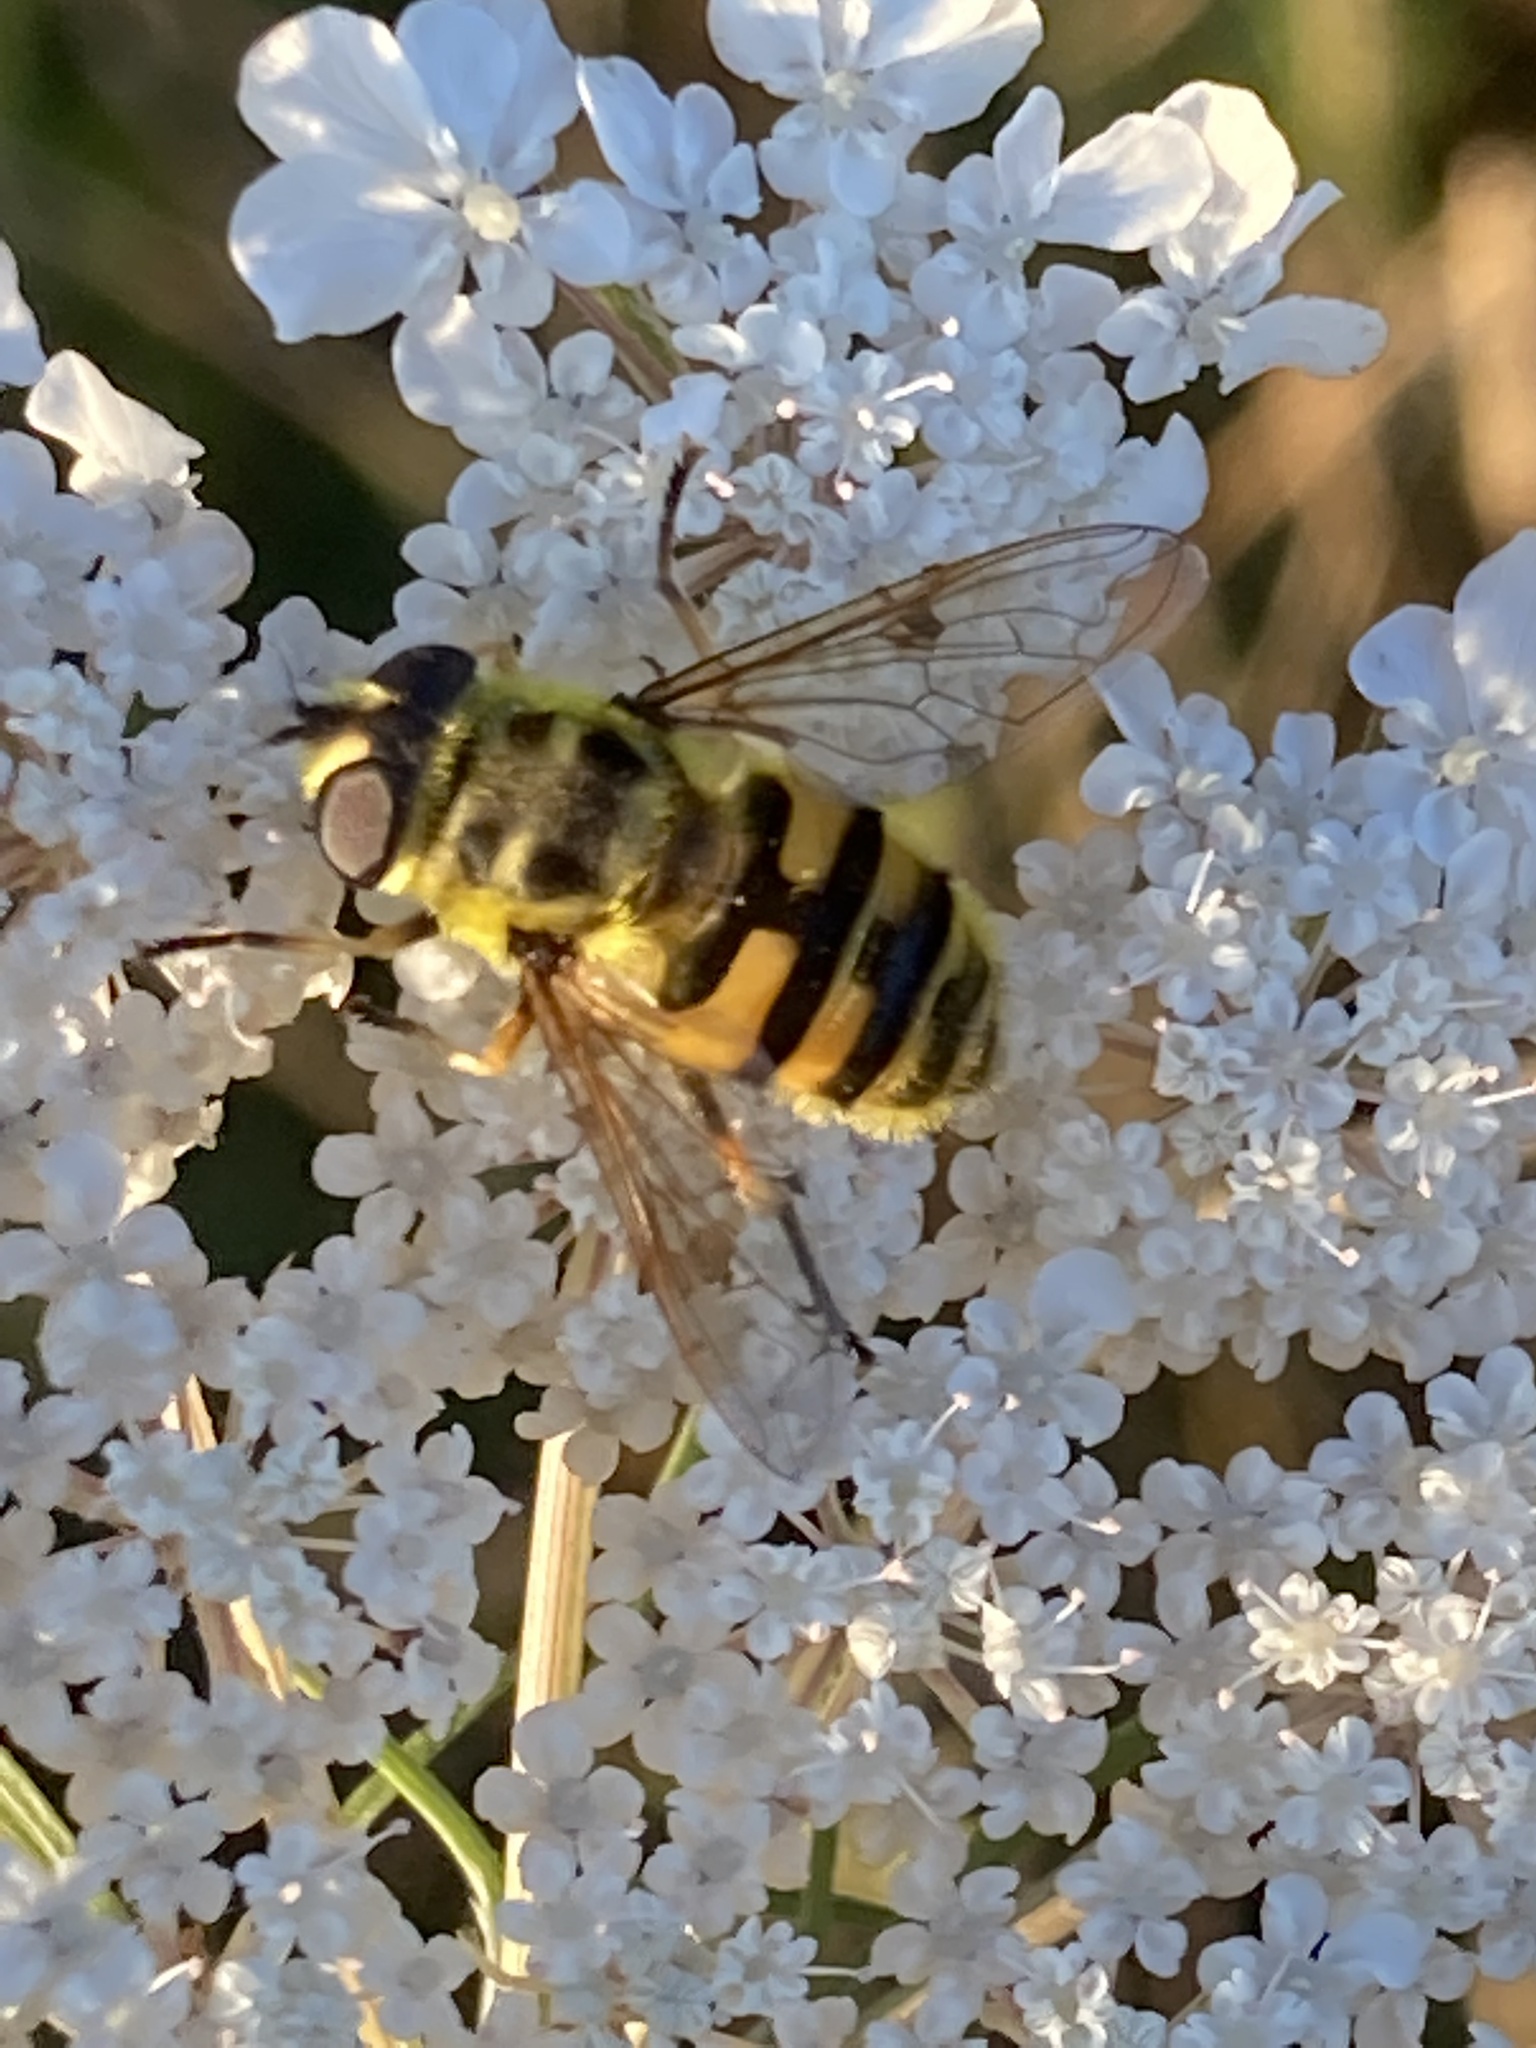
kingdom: Animalia
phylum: Arthropoda
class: Insecta
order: Diptera
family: Syrphidae
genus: Myathropa
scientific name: Myathropa florea
